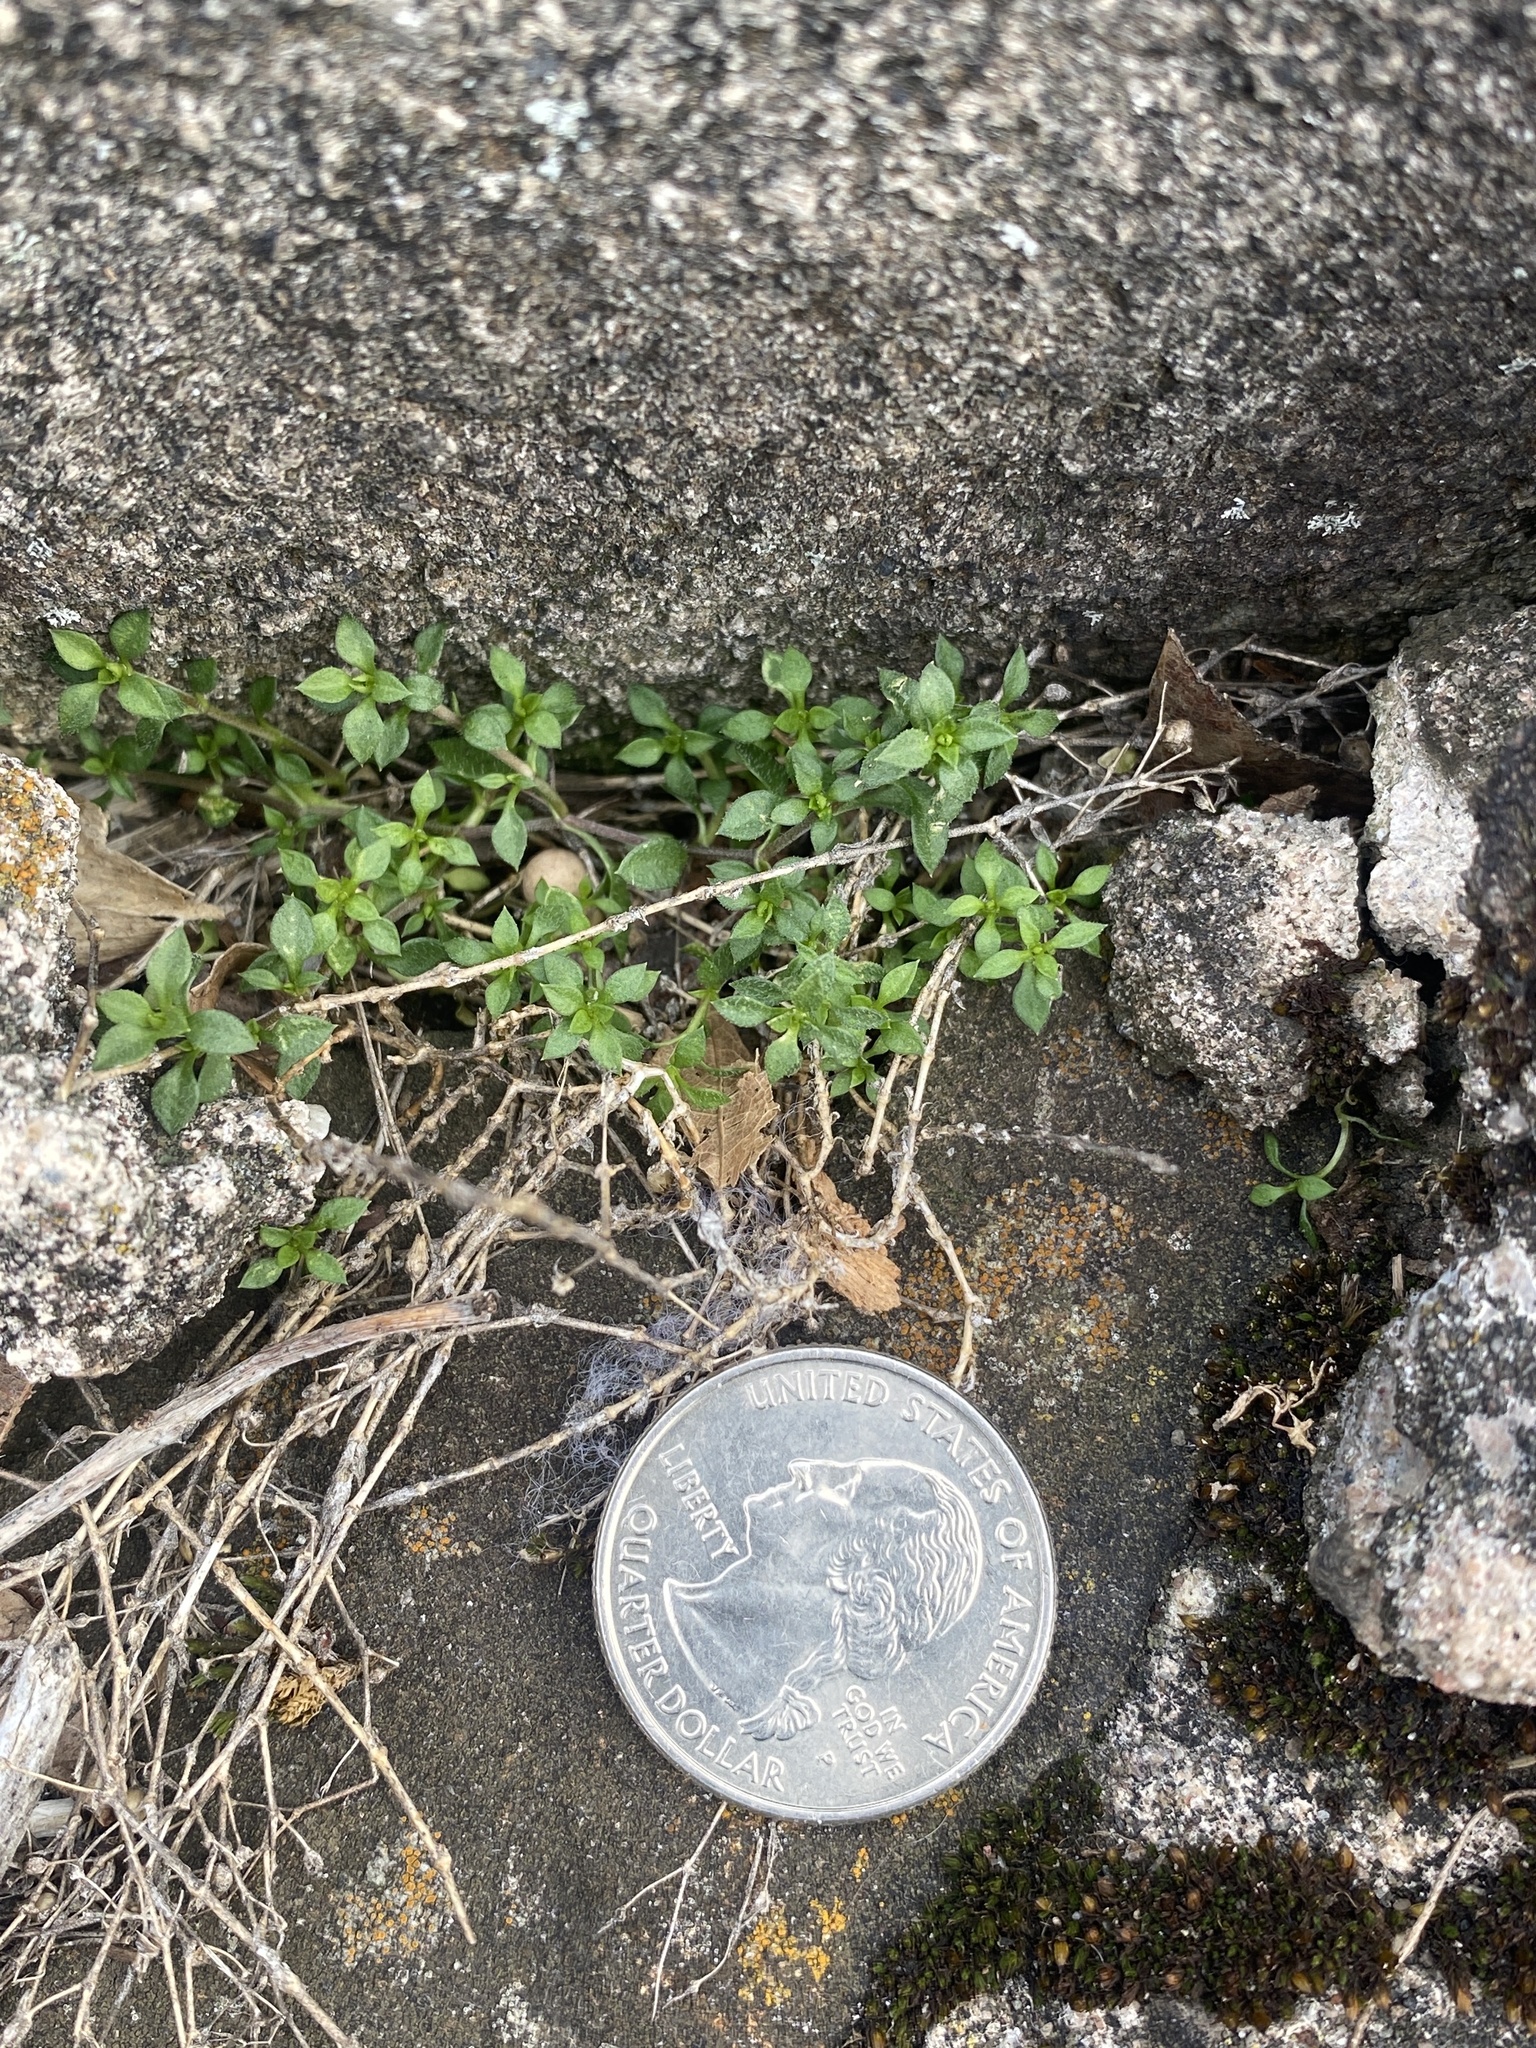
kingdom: Plantae
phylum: Tracheophyta
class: Magnoliopsida
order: Caryophyllales
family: Caryophyllaceae
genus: Stellaria
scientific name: Stellaria media
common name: Common chickweed
